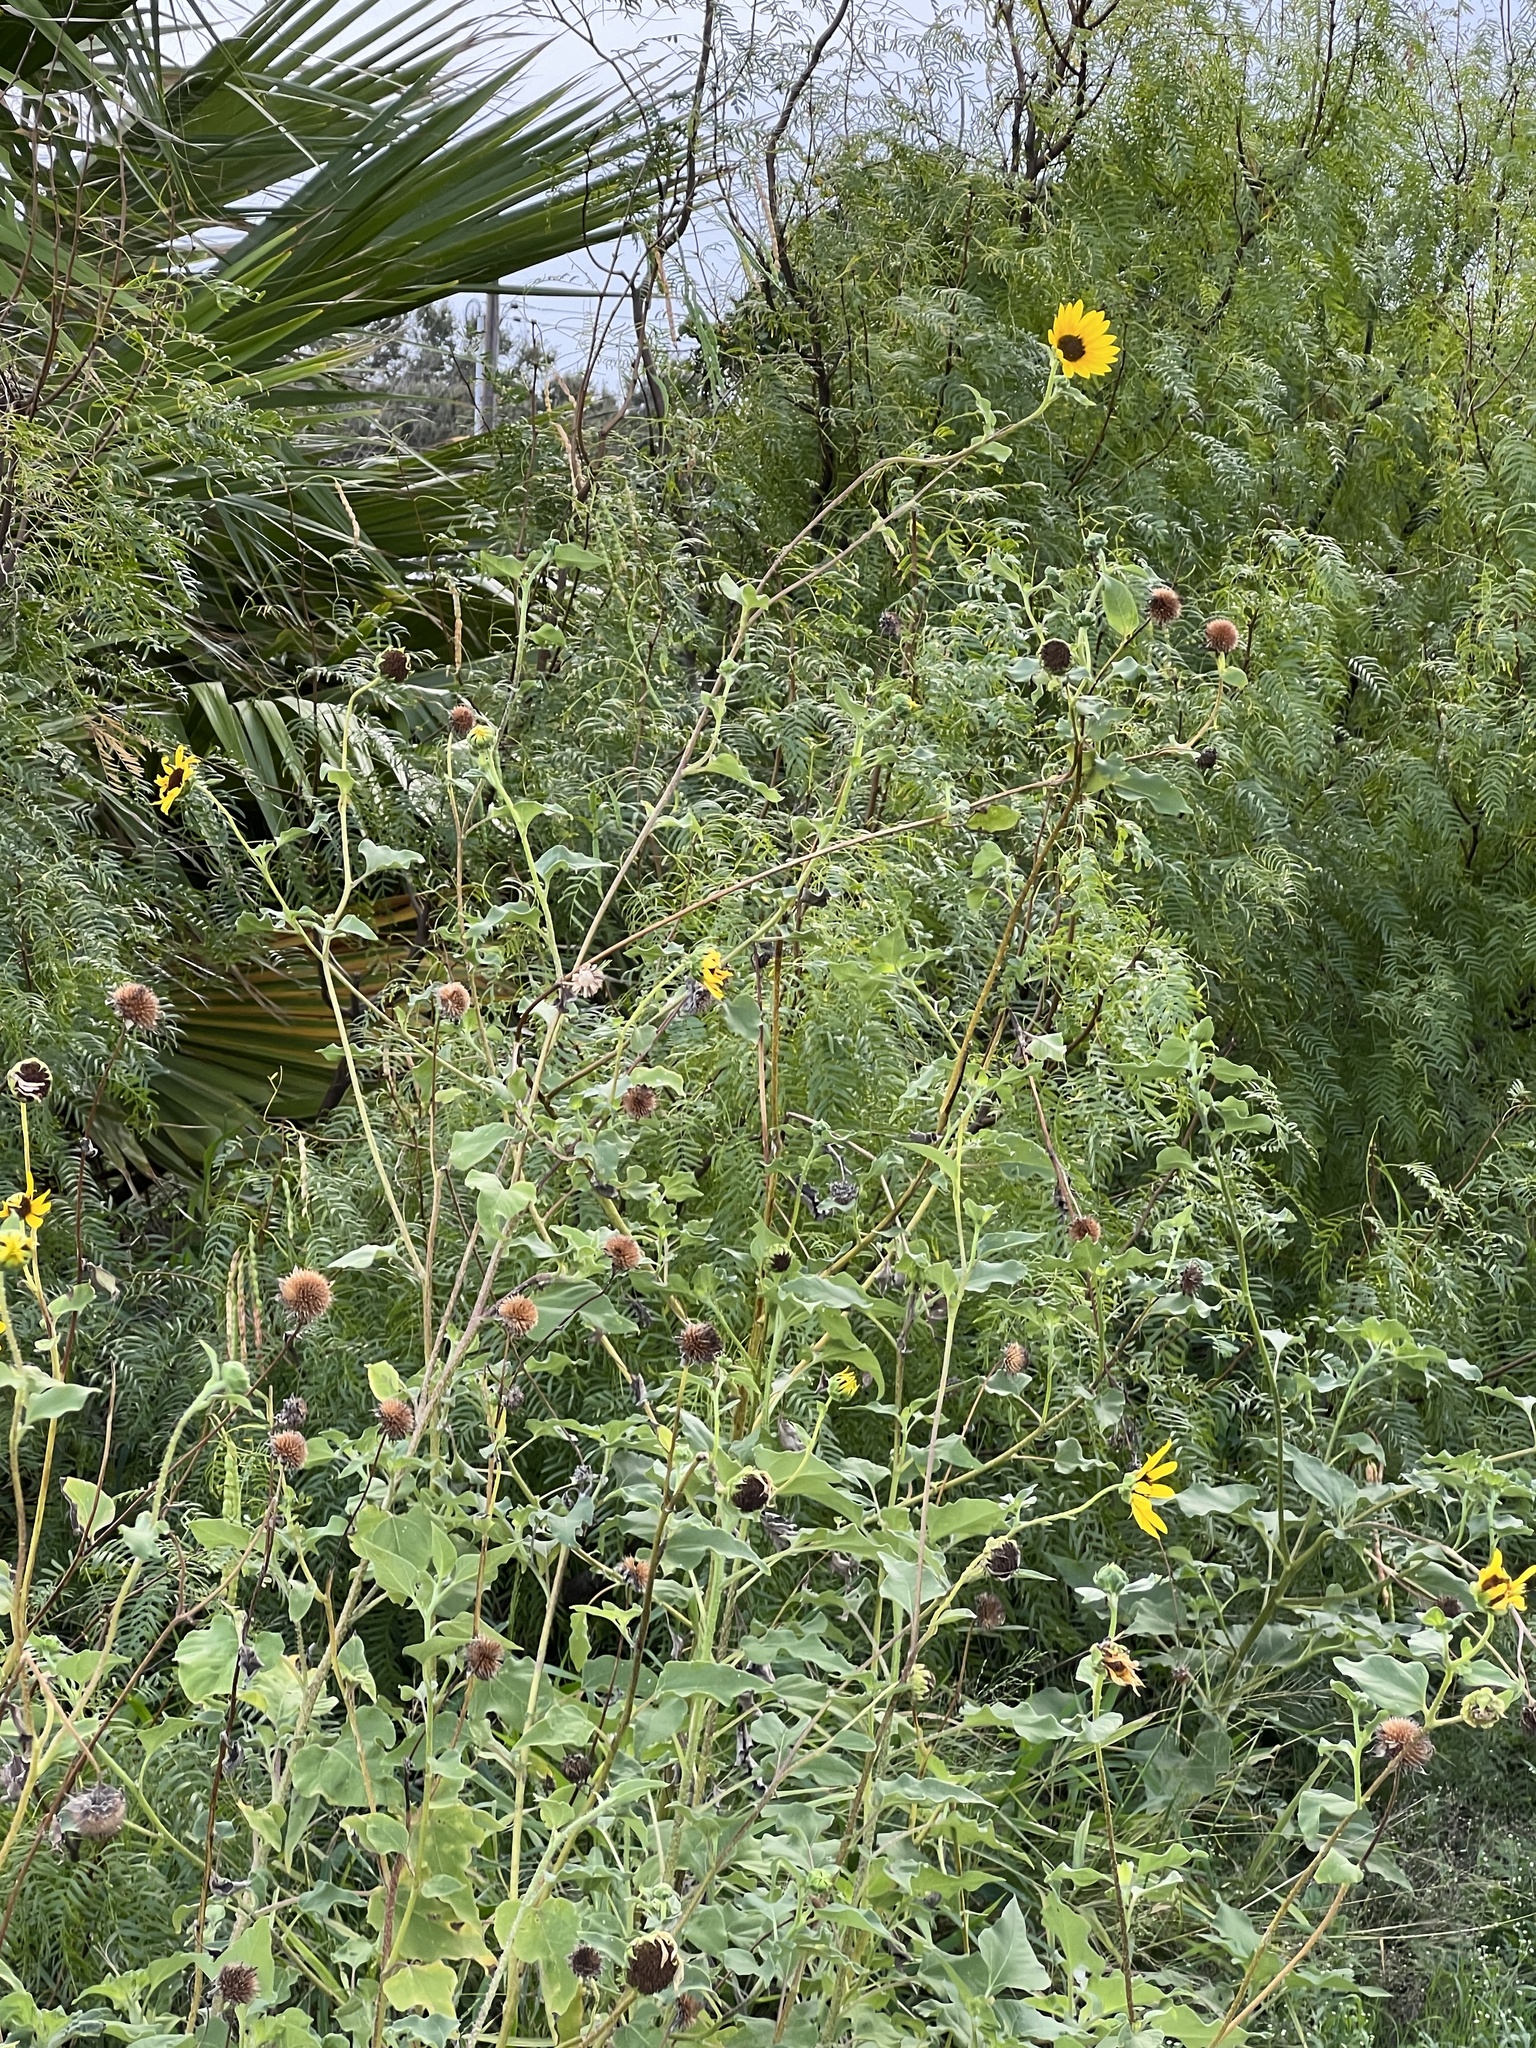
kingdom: Plantae
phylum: Tracheophyta
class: Magnoliopsida
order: Asterales
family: Asteraceae
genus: Helianthus
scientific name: Helianthus annuus
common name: Sunflower
